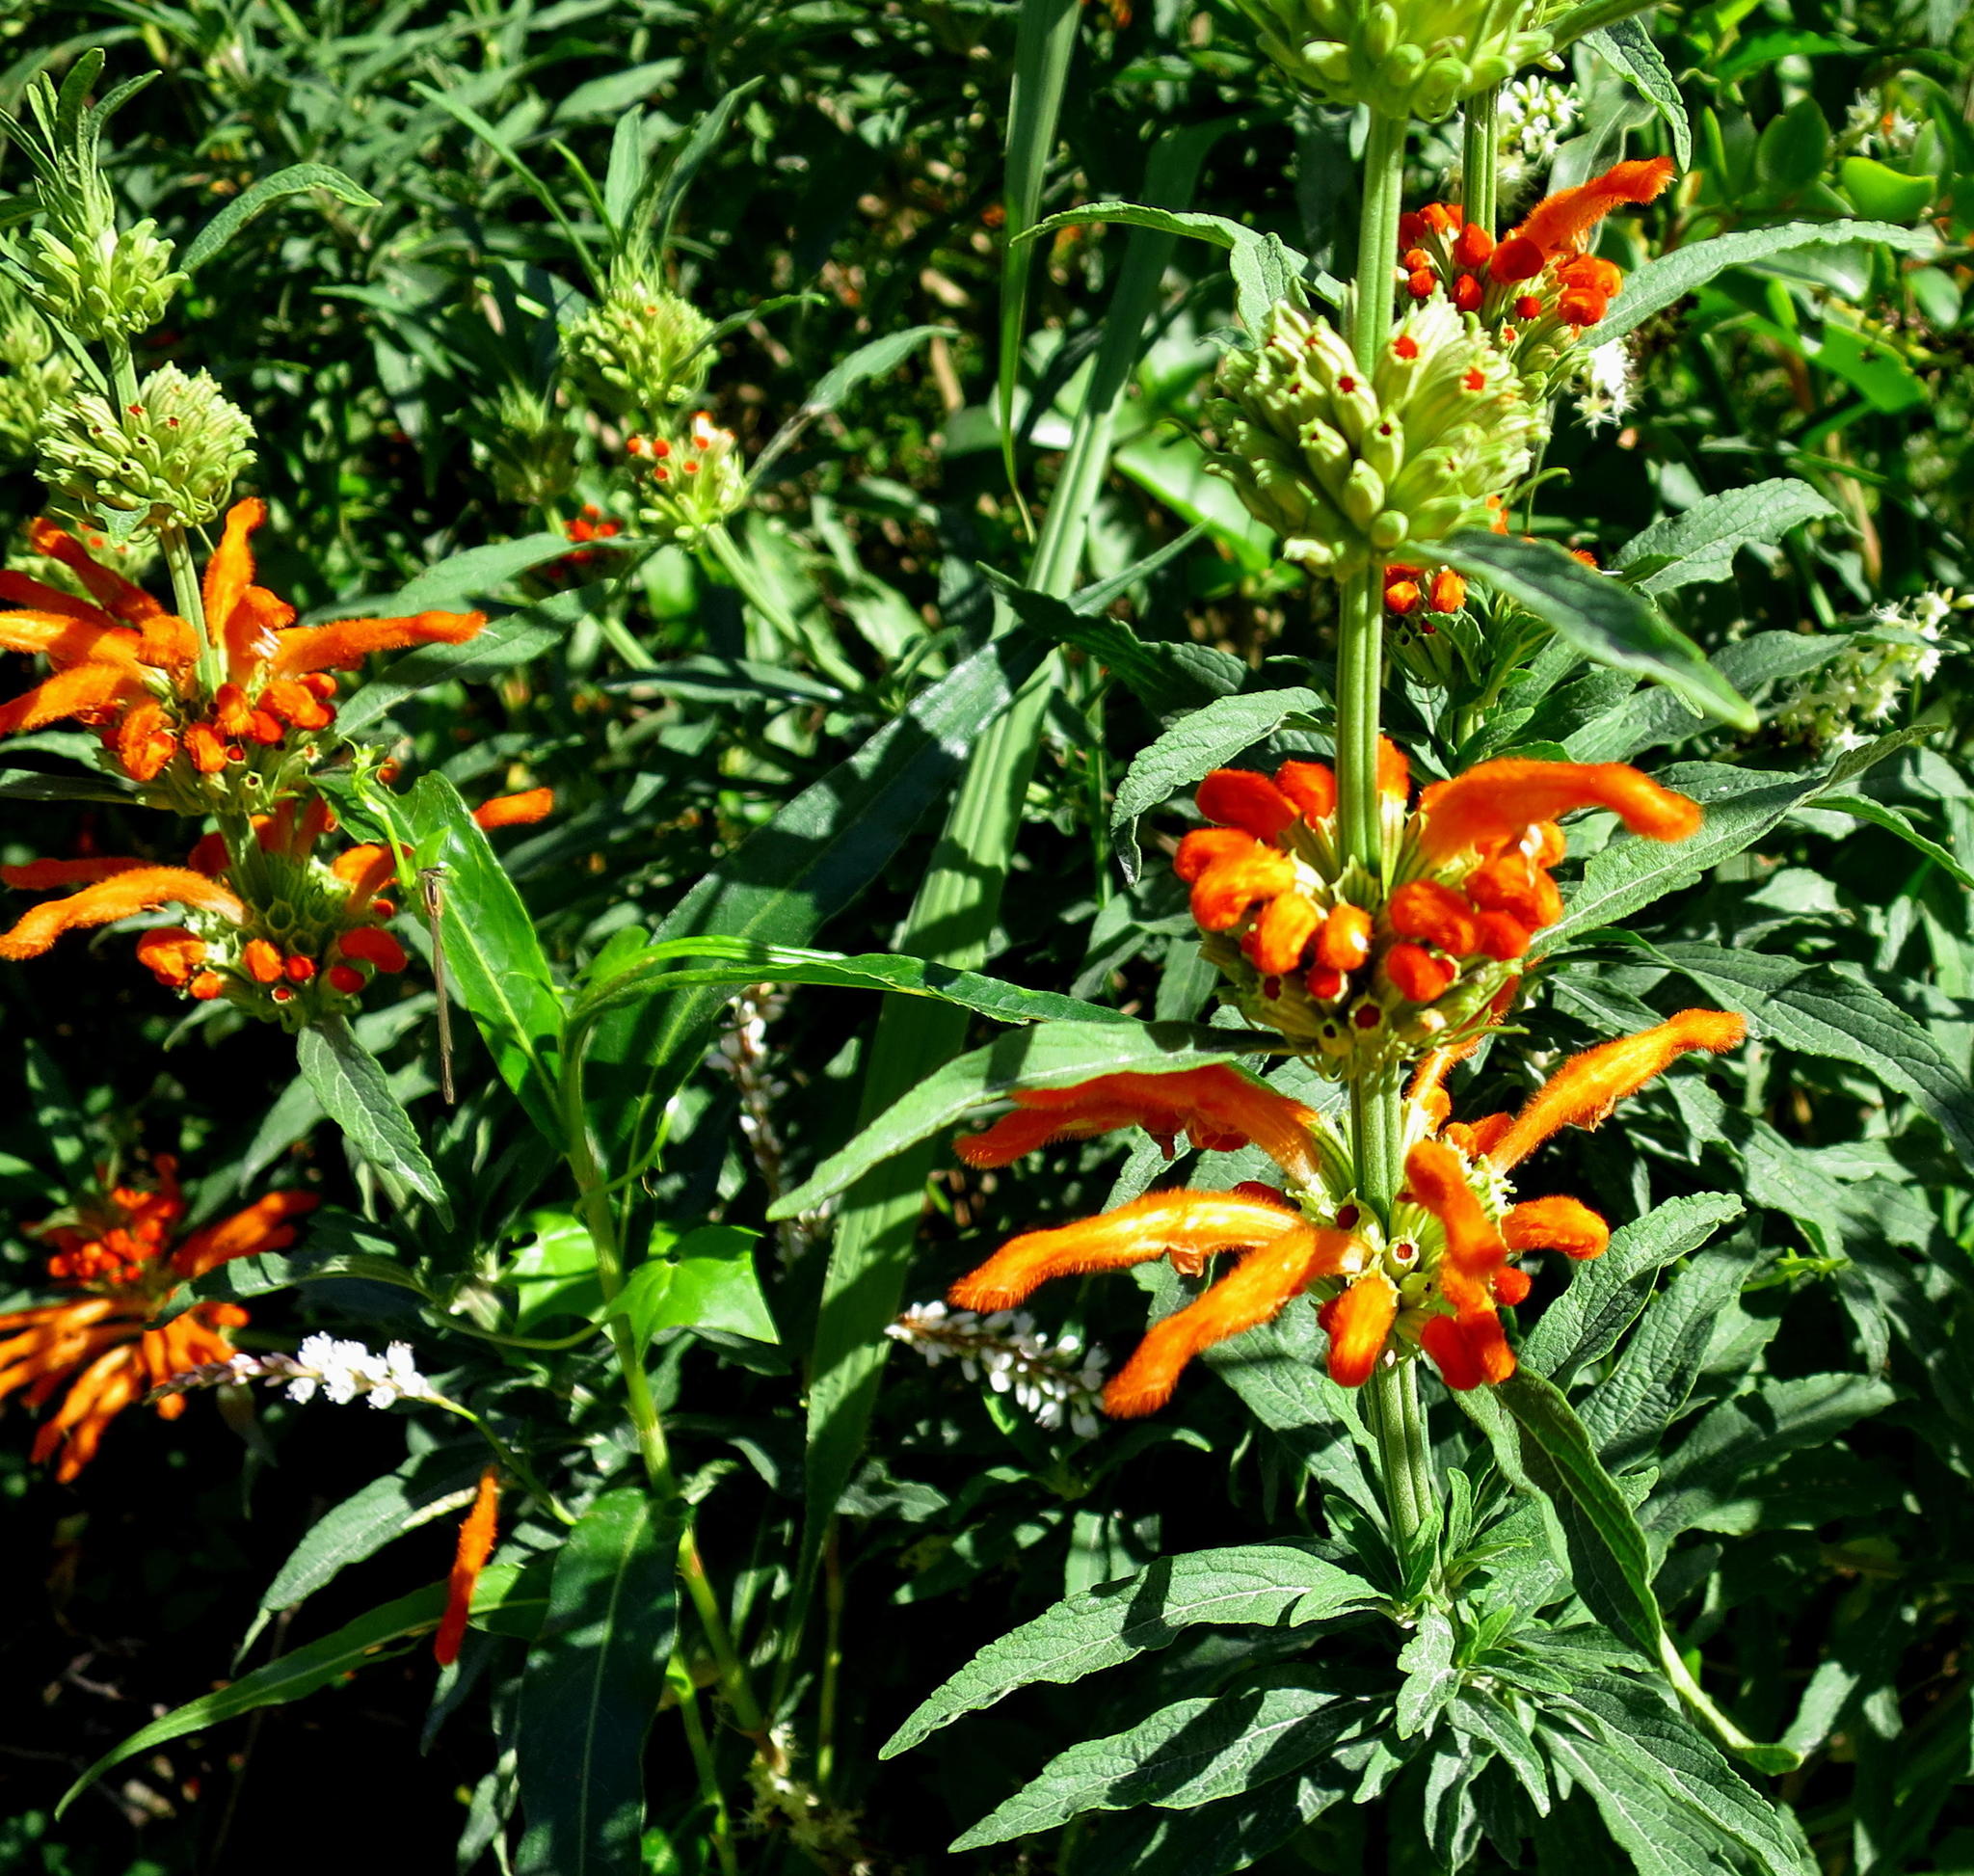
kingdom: Plantae
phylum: Tracheophyta
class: Magnoliopsida
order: Lamiales
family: Lamiaceae
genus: Leonotis
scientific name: Leonotis leonurus
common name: Lion's ear
